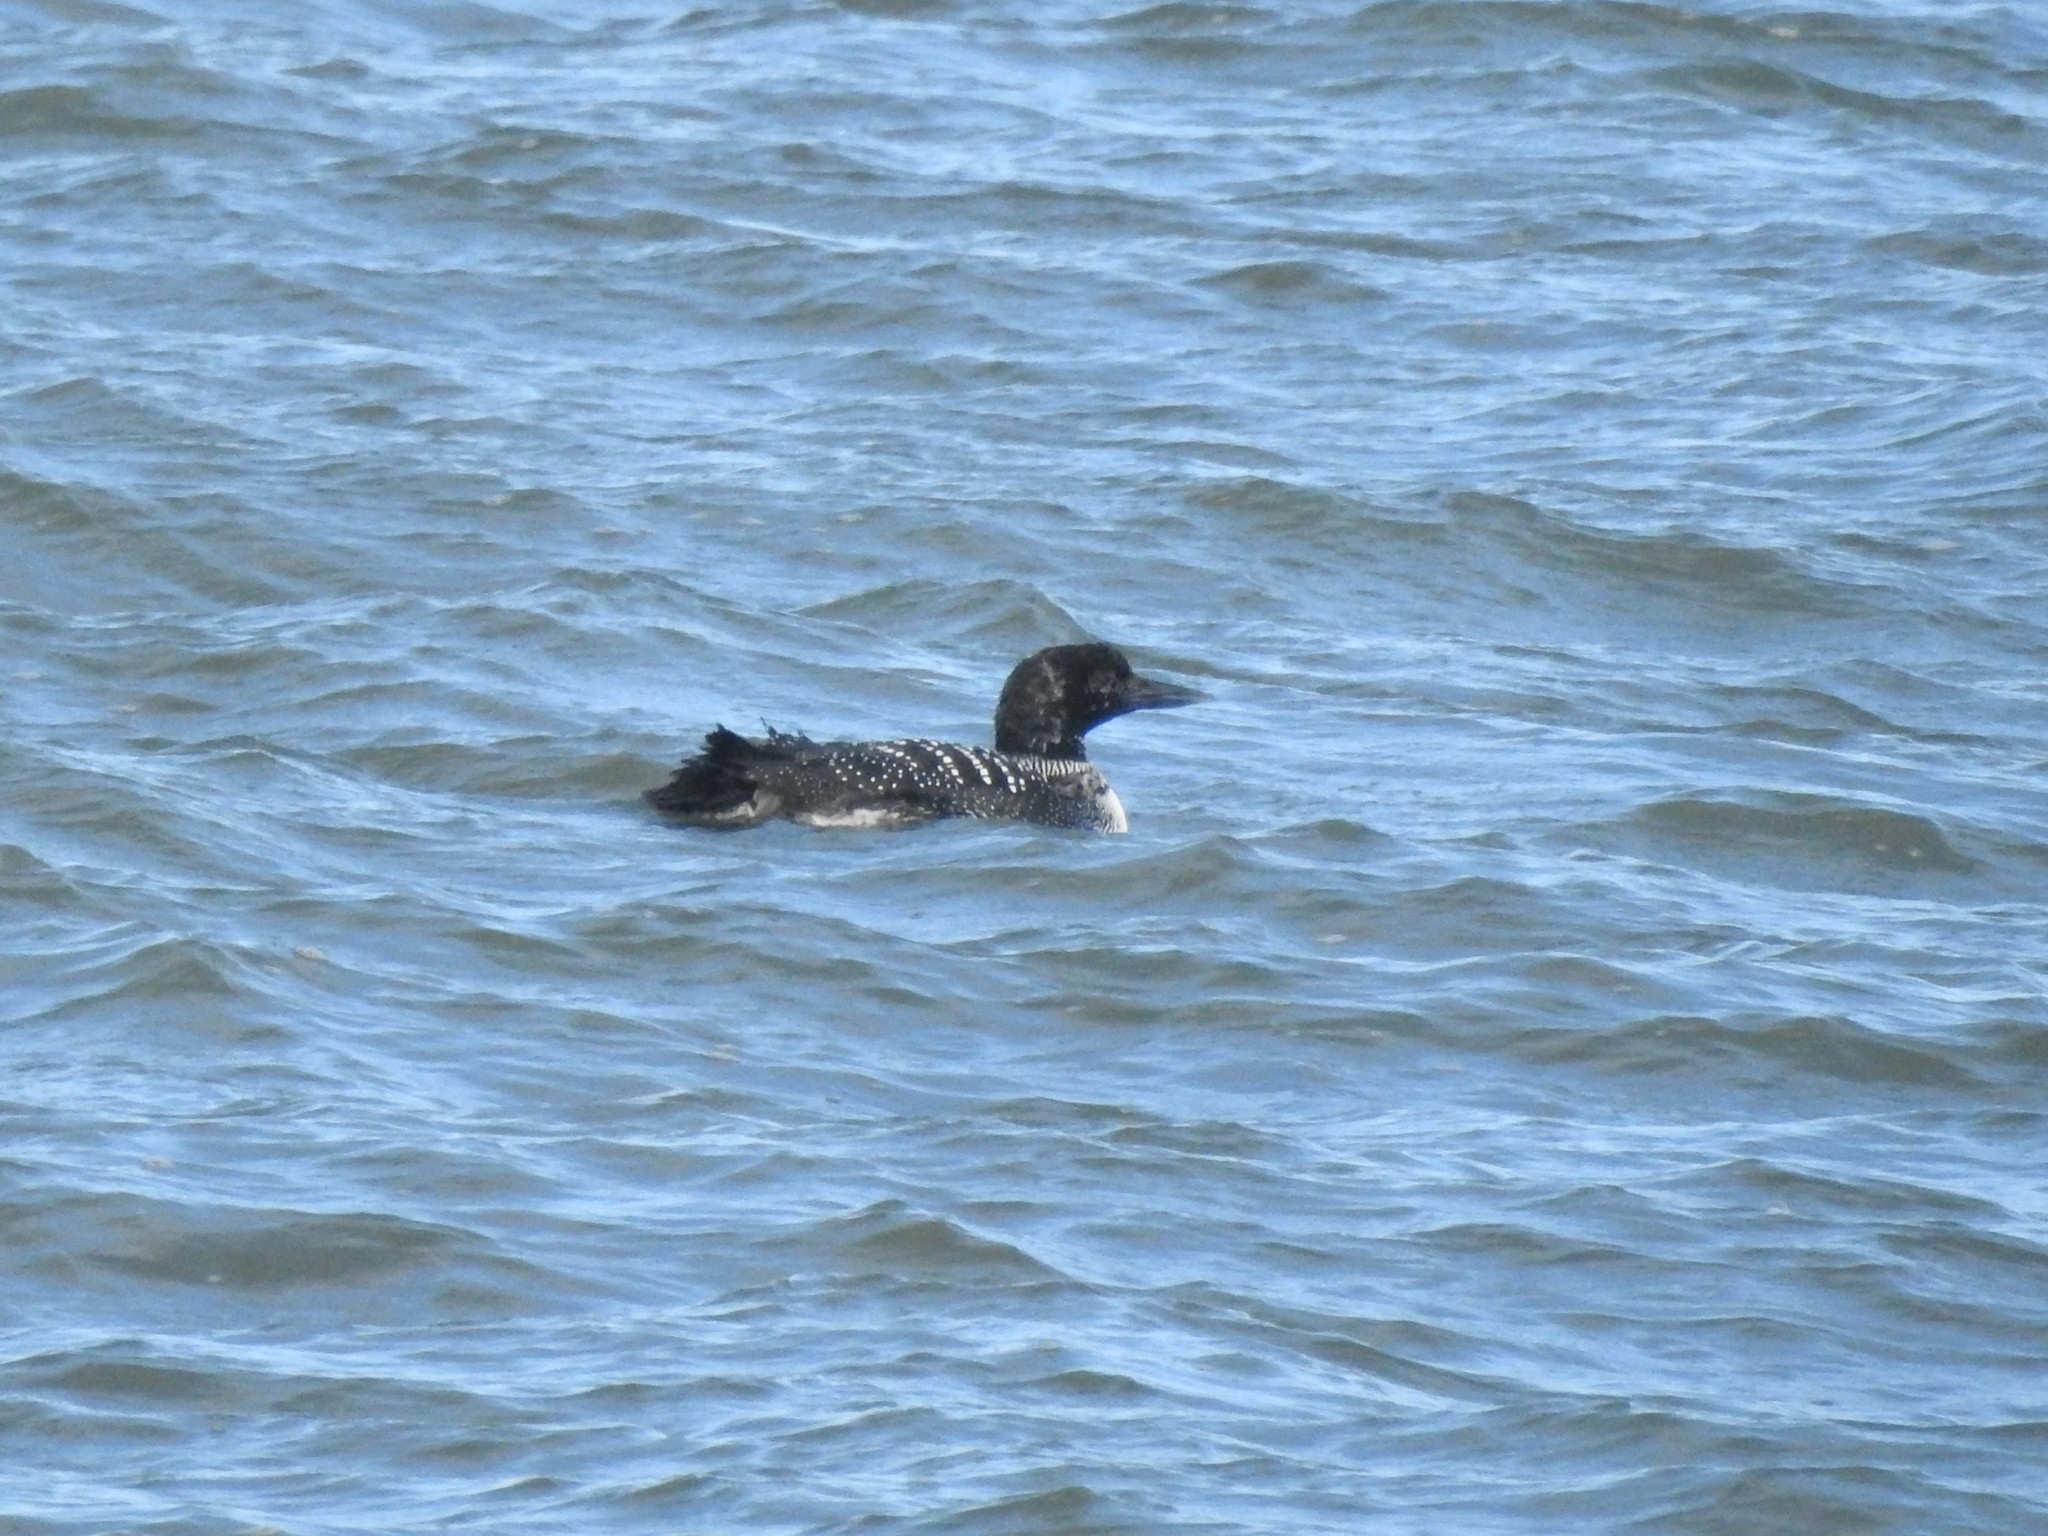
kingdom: Animalia
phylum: Chordata
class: Aves
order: Gaviiformes
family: Gaviidae
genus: Gavia
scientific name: Gavia immer
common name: Common loon
